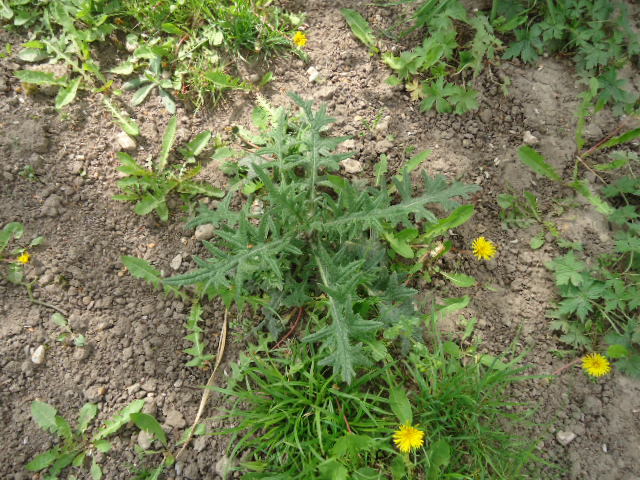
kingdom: Plantae
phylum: Tracheophyta
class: Magnoliopsida
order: Asterales
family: Asteraceae
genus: Cirsium
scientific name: Cirsium vulgare
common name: Bull thistle
